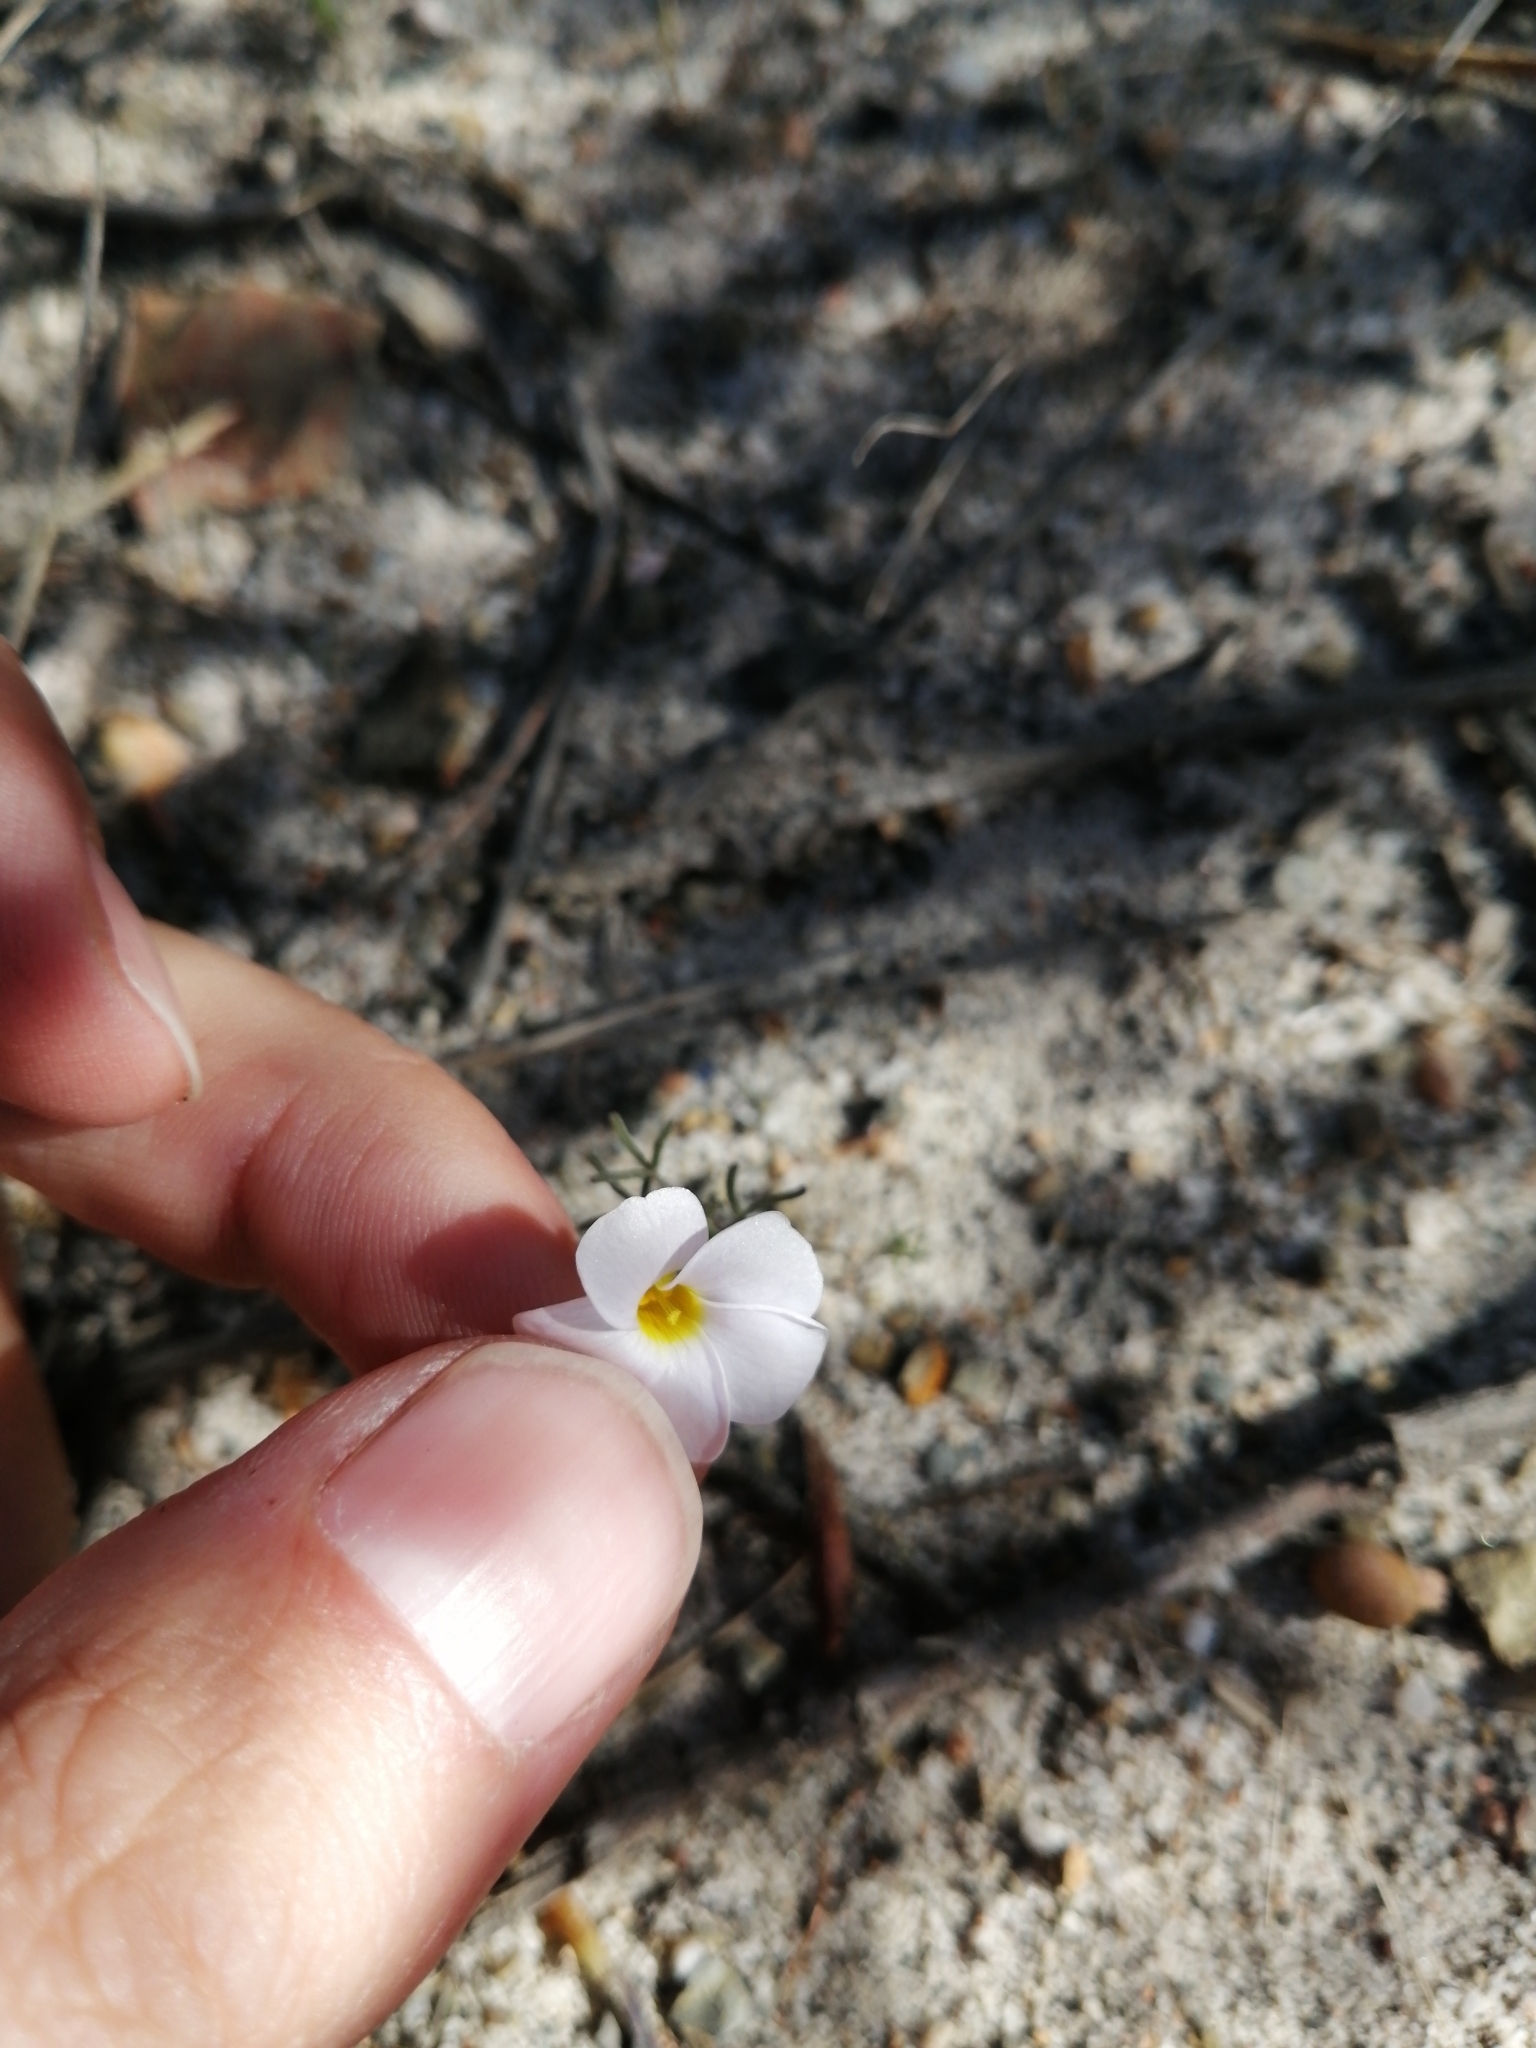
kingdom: Plantae
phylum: Tracheophyta
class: Magnoliopsida
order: Oxalidales
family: Oxalidaceae
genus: Oxalis
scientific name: Oxalis ciliaris
